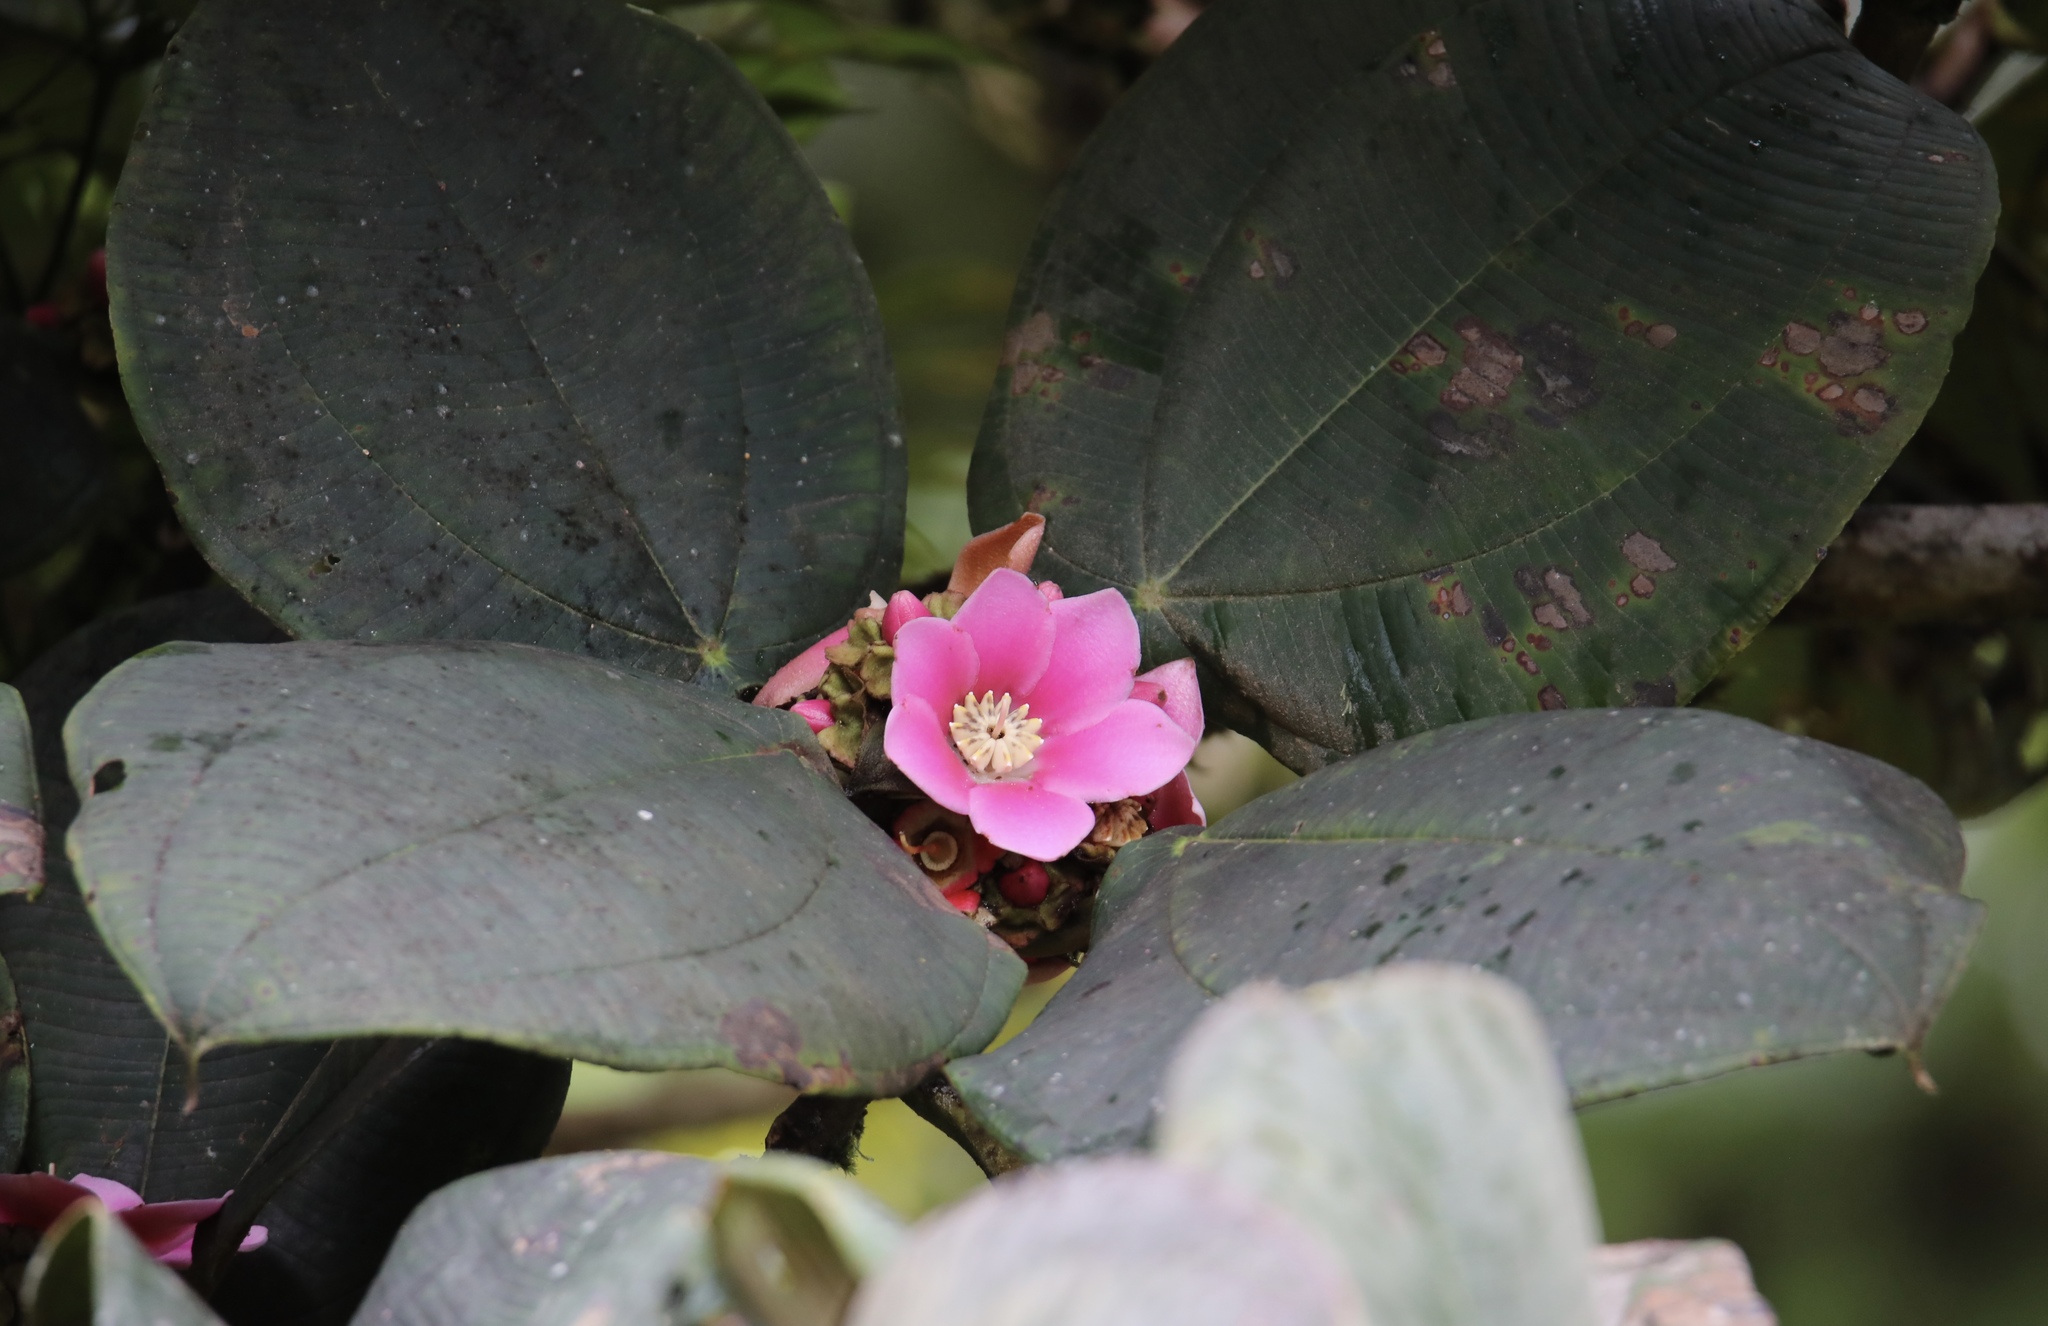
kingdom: Plantae
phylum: Tracheophyta
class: Magnoliopsida
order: Myrtales
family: Melastomataceae
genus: Blakea
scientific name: Blakea tuberculata
